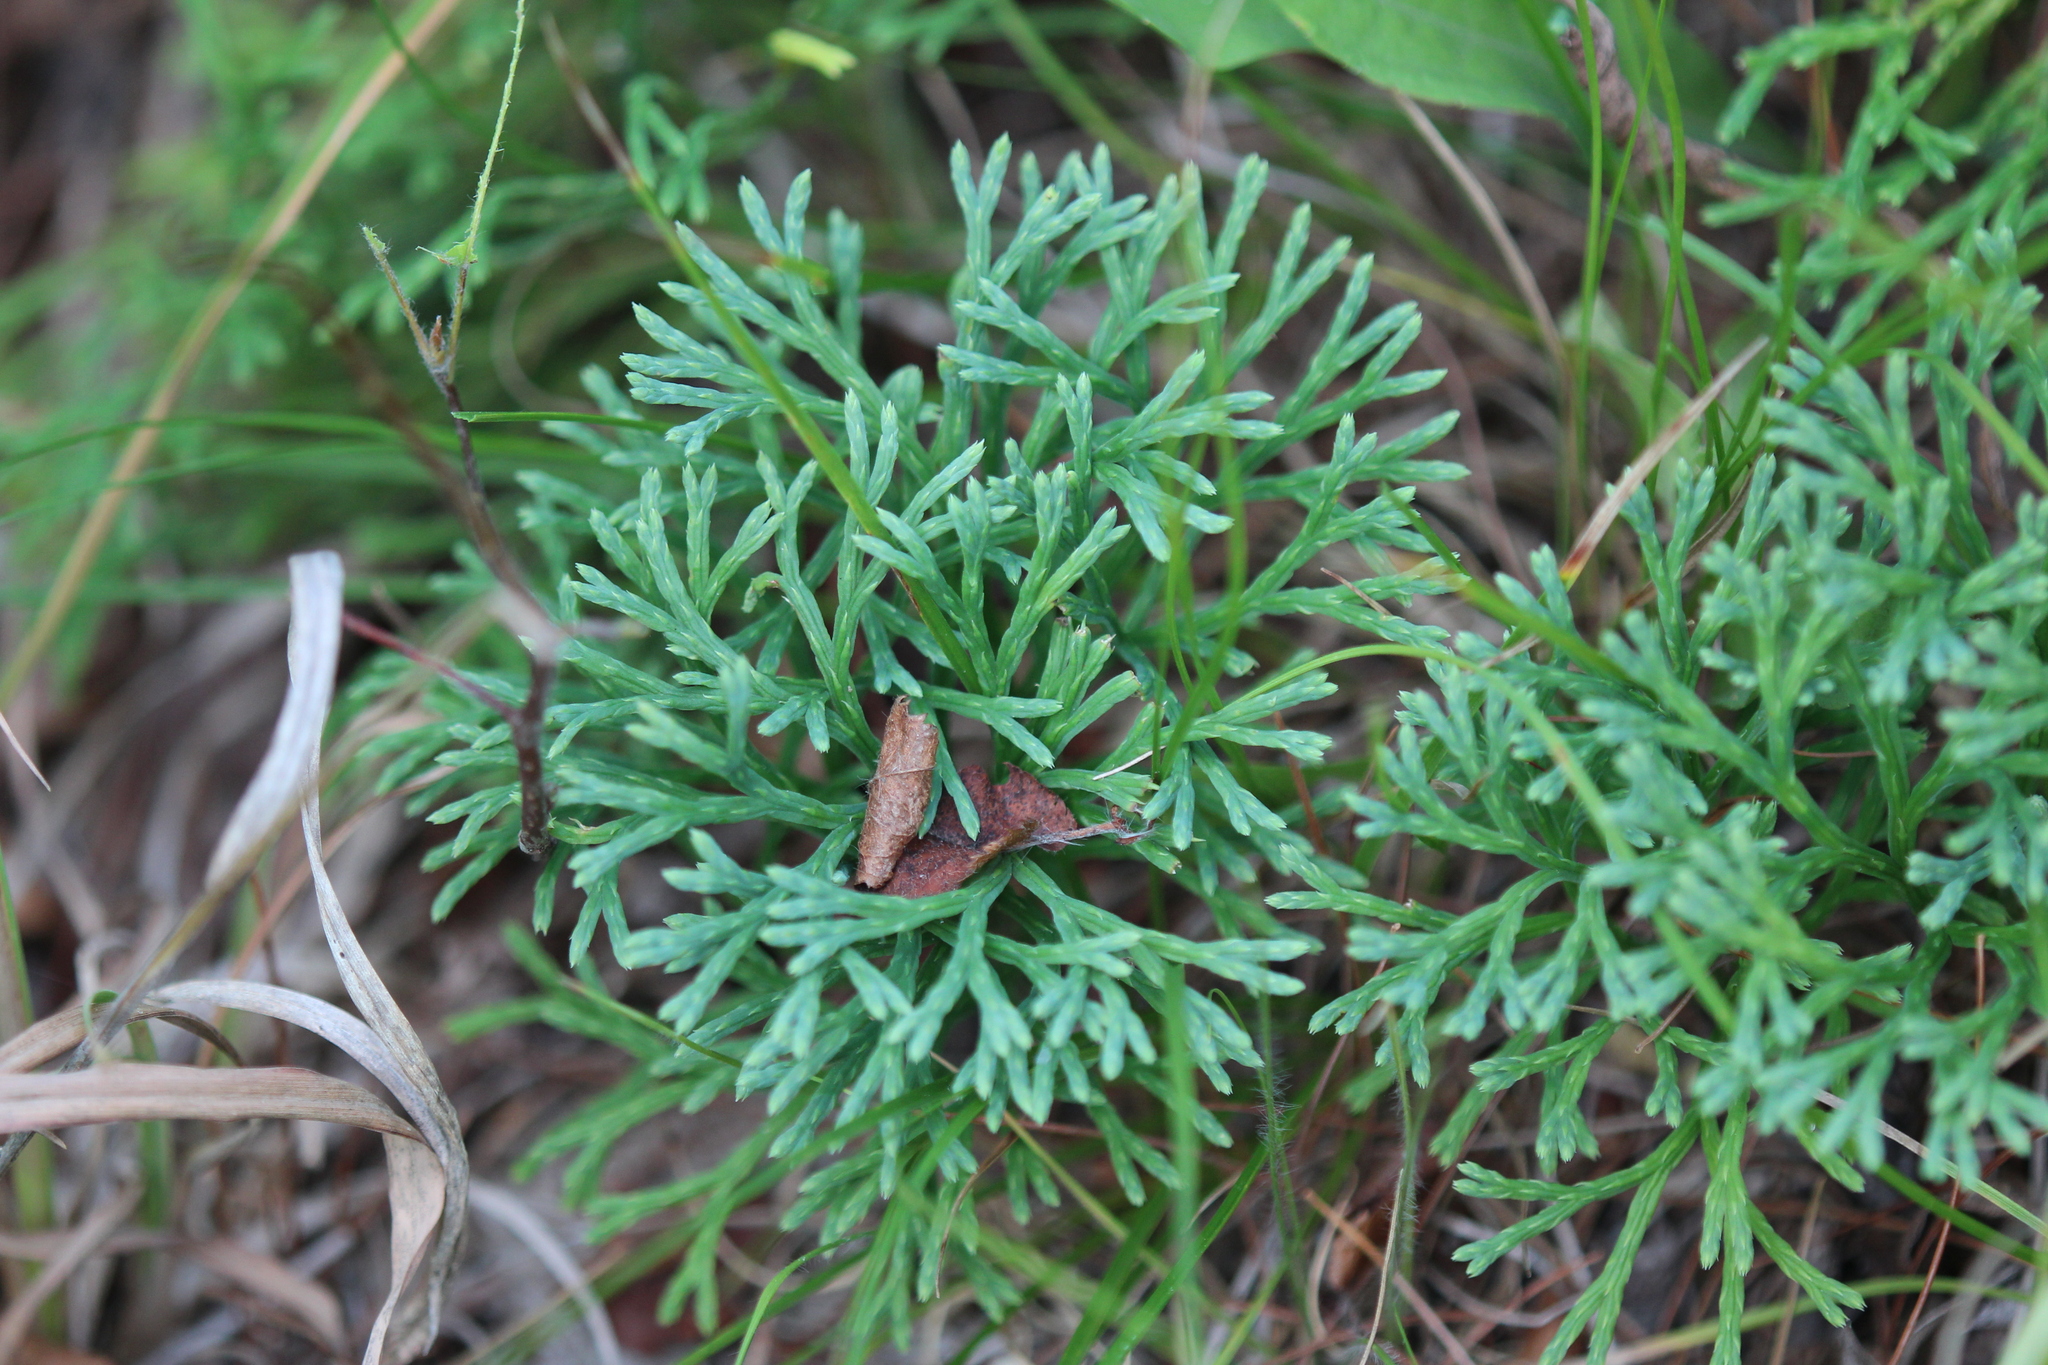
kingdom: Plantae
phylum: Tracheophyta
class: Lycopodiopsida
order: Lycopodiales
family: Lycopodiaceae
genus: Diphasiastrum
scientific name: Diphasiastrum tristachyum
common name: Blue ground-cedar
